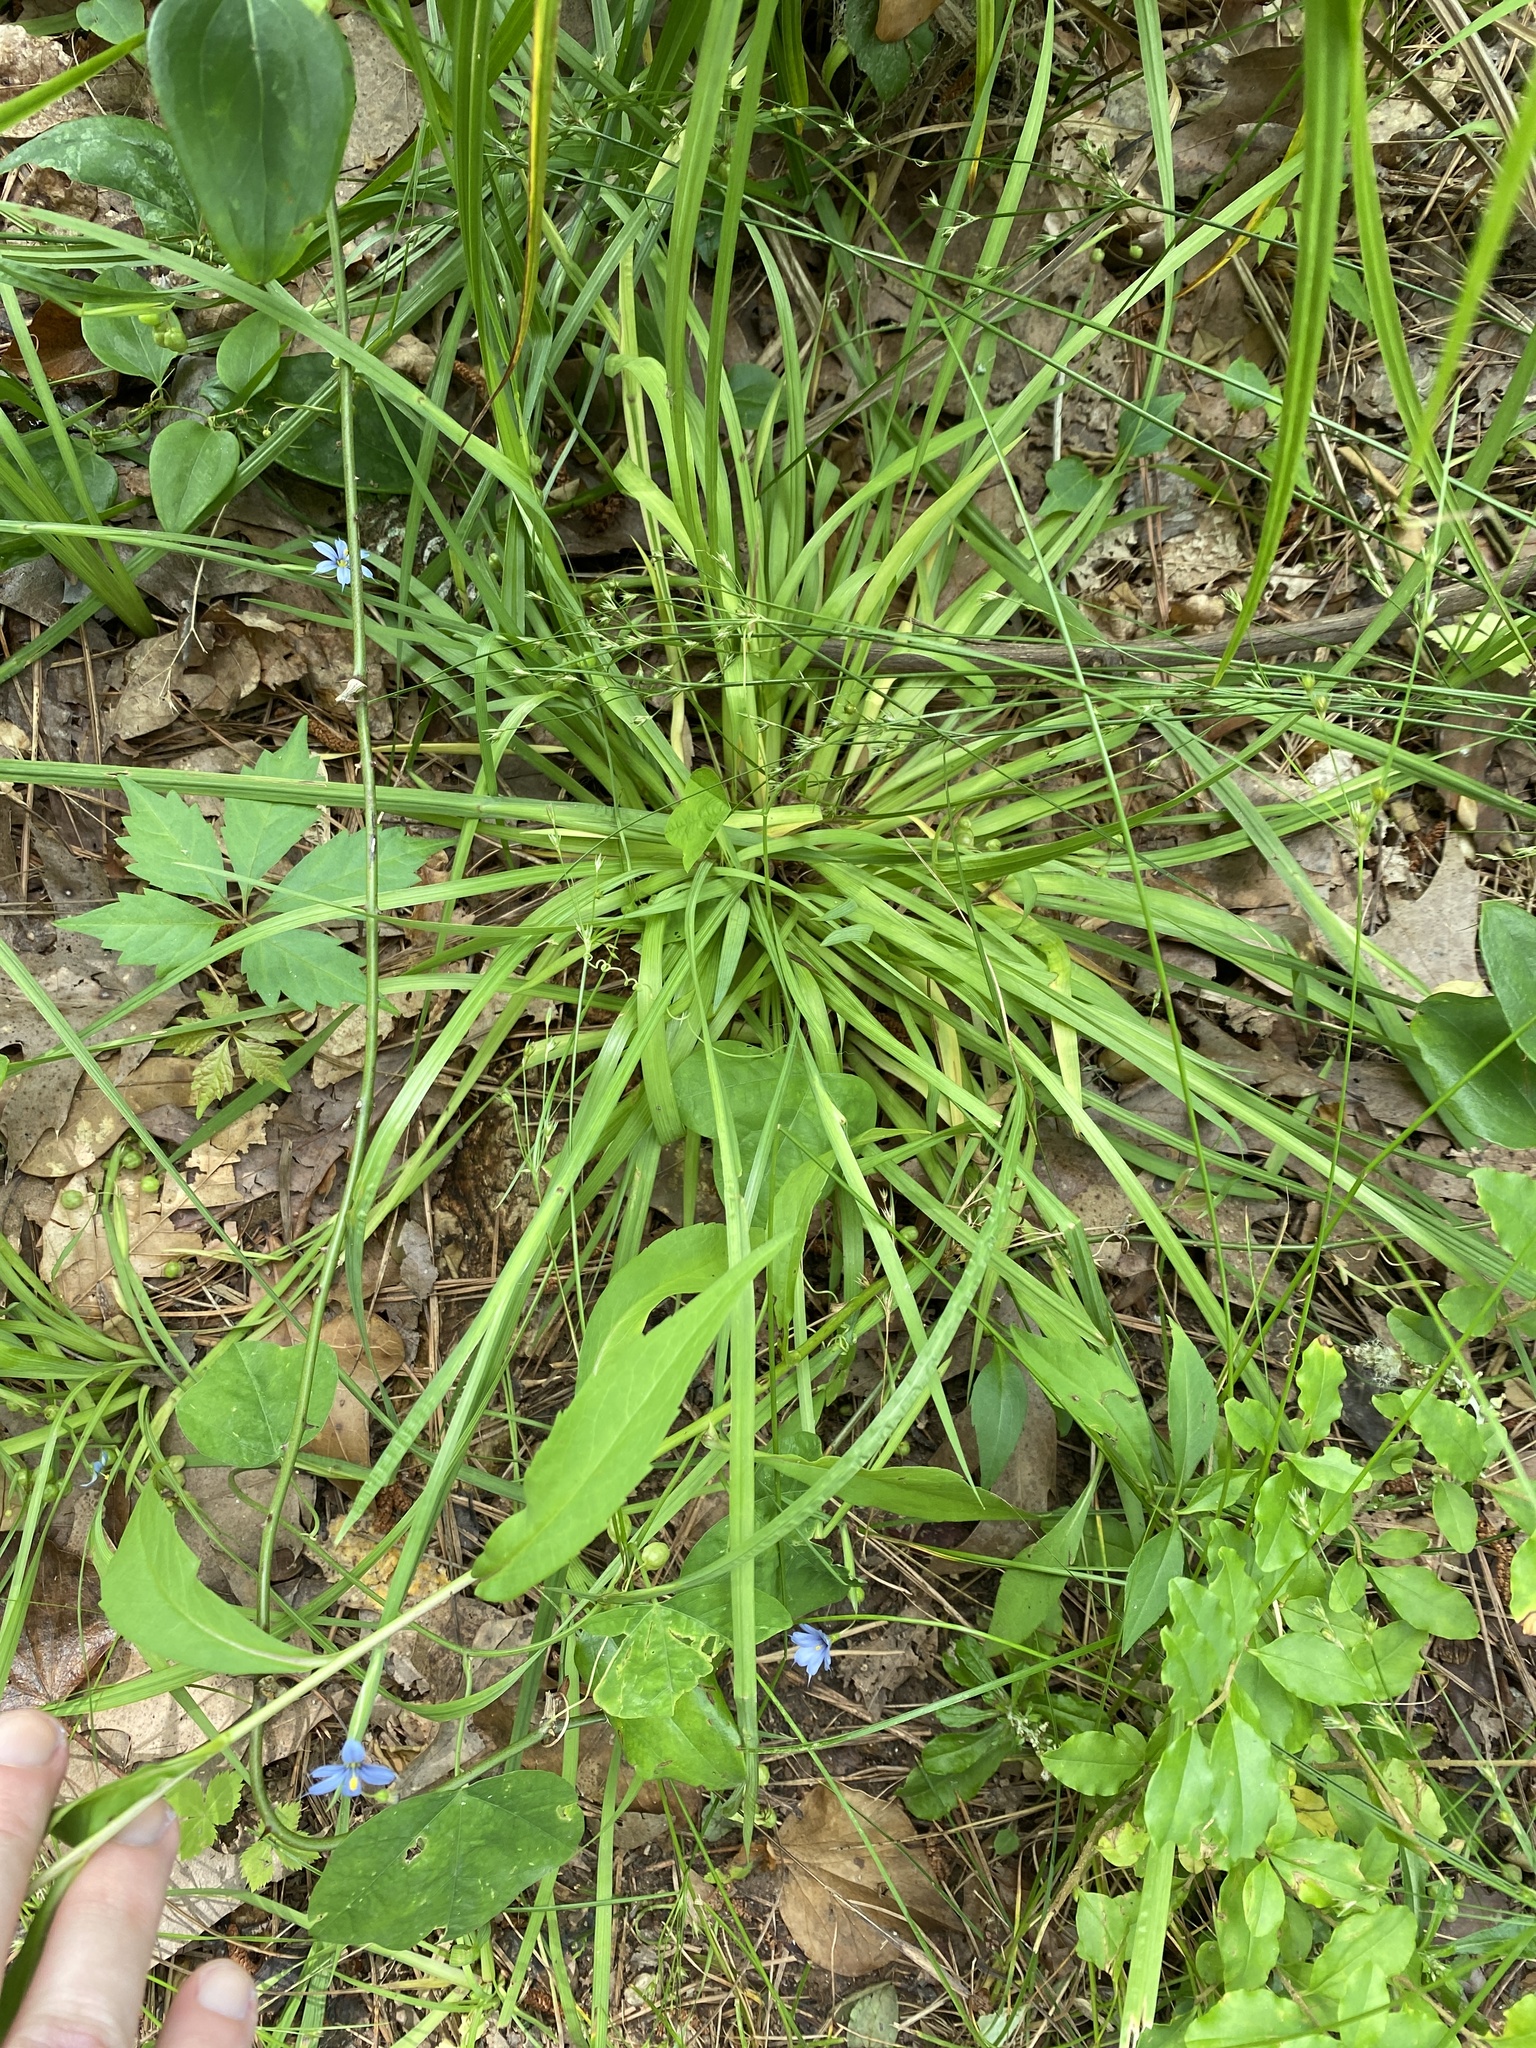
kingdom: Plantae
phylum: Tracheophyta
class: Liliopsida
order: Asparagales
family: Iridaceae
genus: Sisyrinchium
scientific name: Sisyrinchium angustifolium
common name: Narrow-leaf blue-eyed-grass
